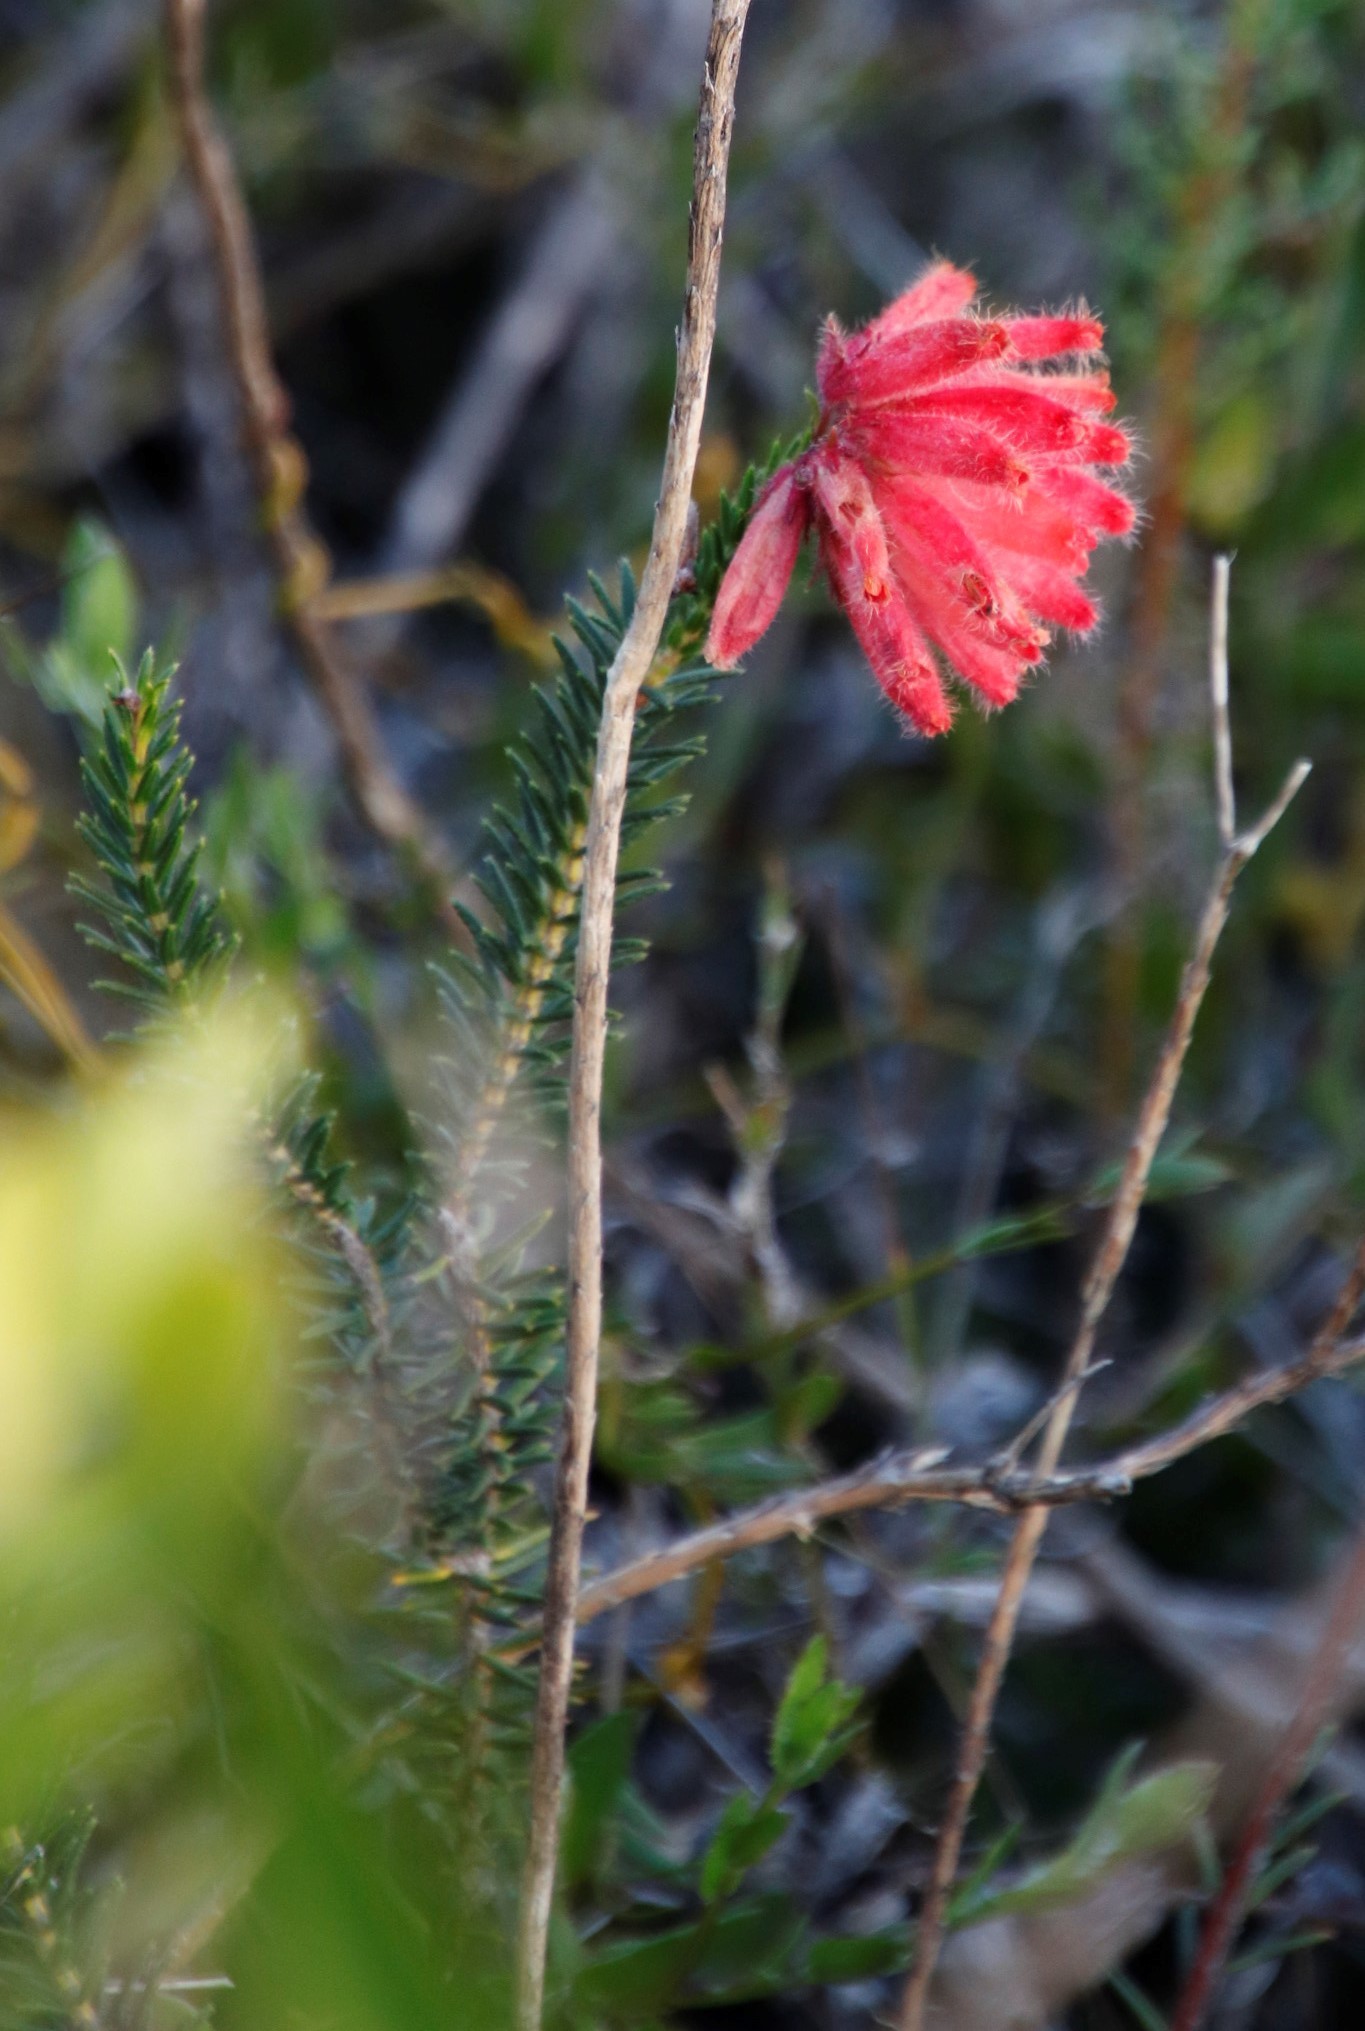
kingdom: Plantae
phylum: Tracheophyta
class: Magnoliopsida
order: Ericales
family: Ericaceae
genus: Erica
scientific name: Erica cerinthoides
